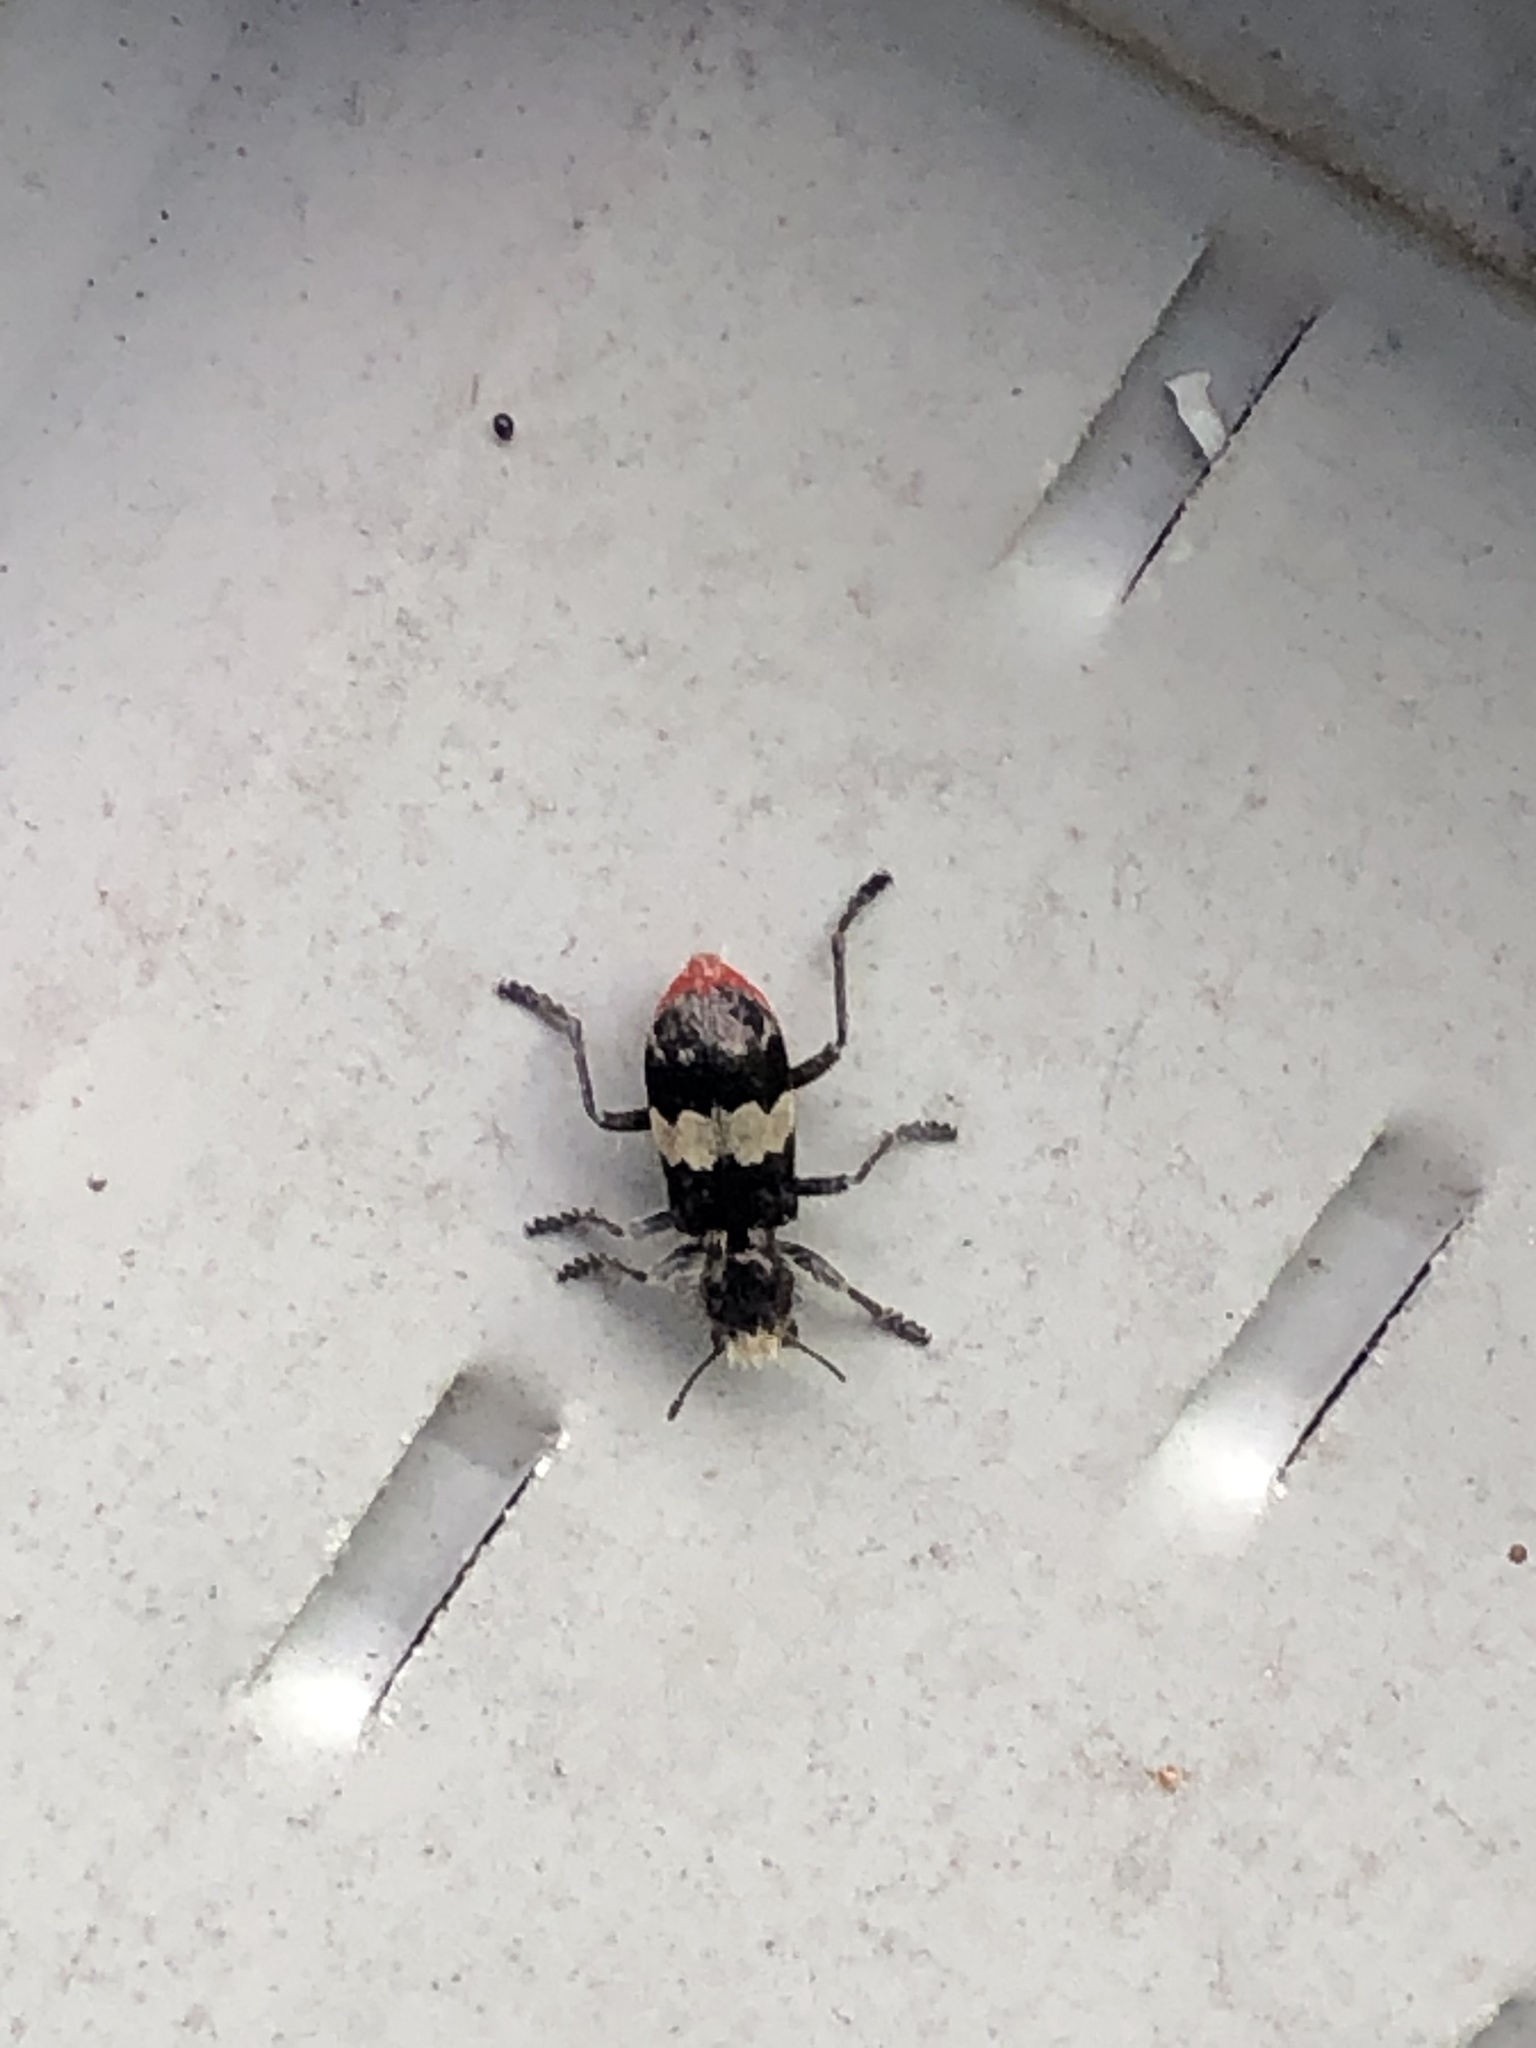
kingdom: Animalia
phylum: Arthropoda
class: Insecta
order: Coleoptera
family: Cleridae
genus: Enoclerus
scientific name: Enoclerus sphegeus
